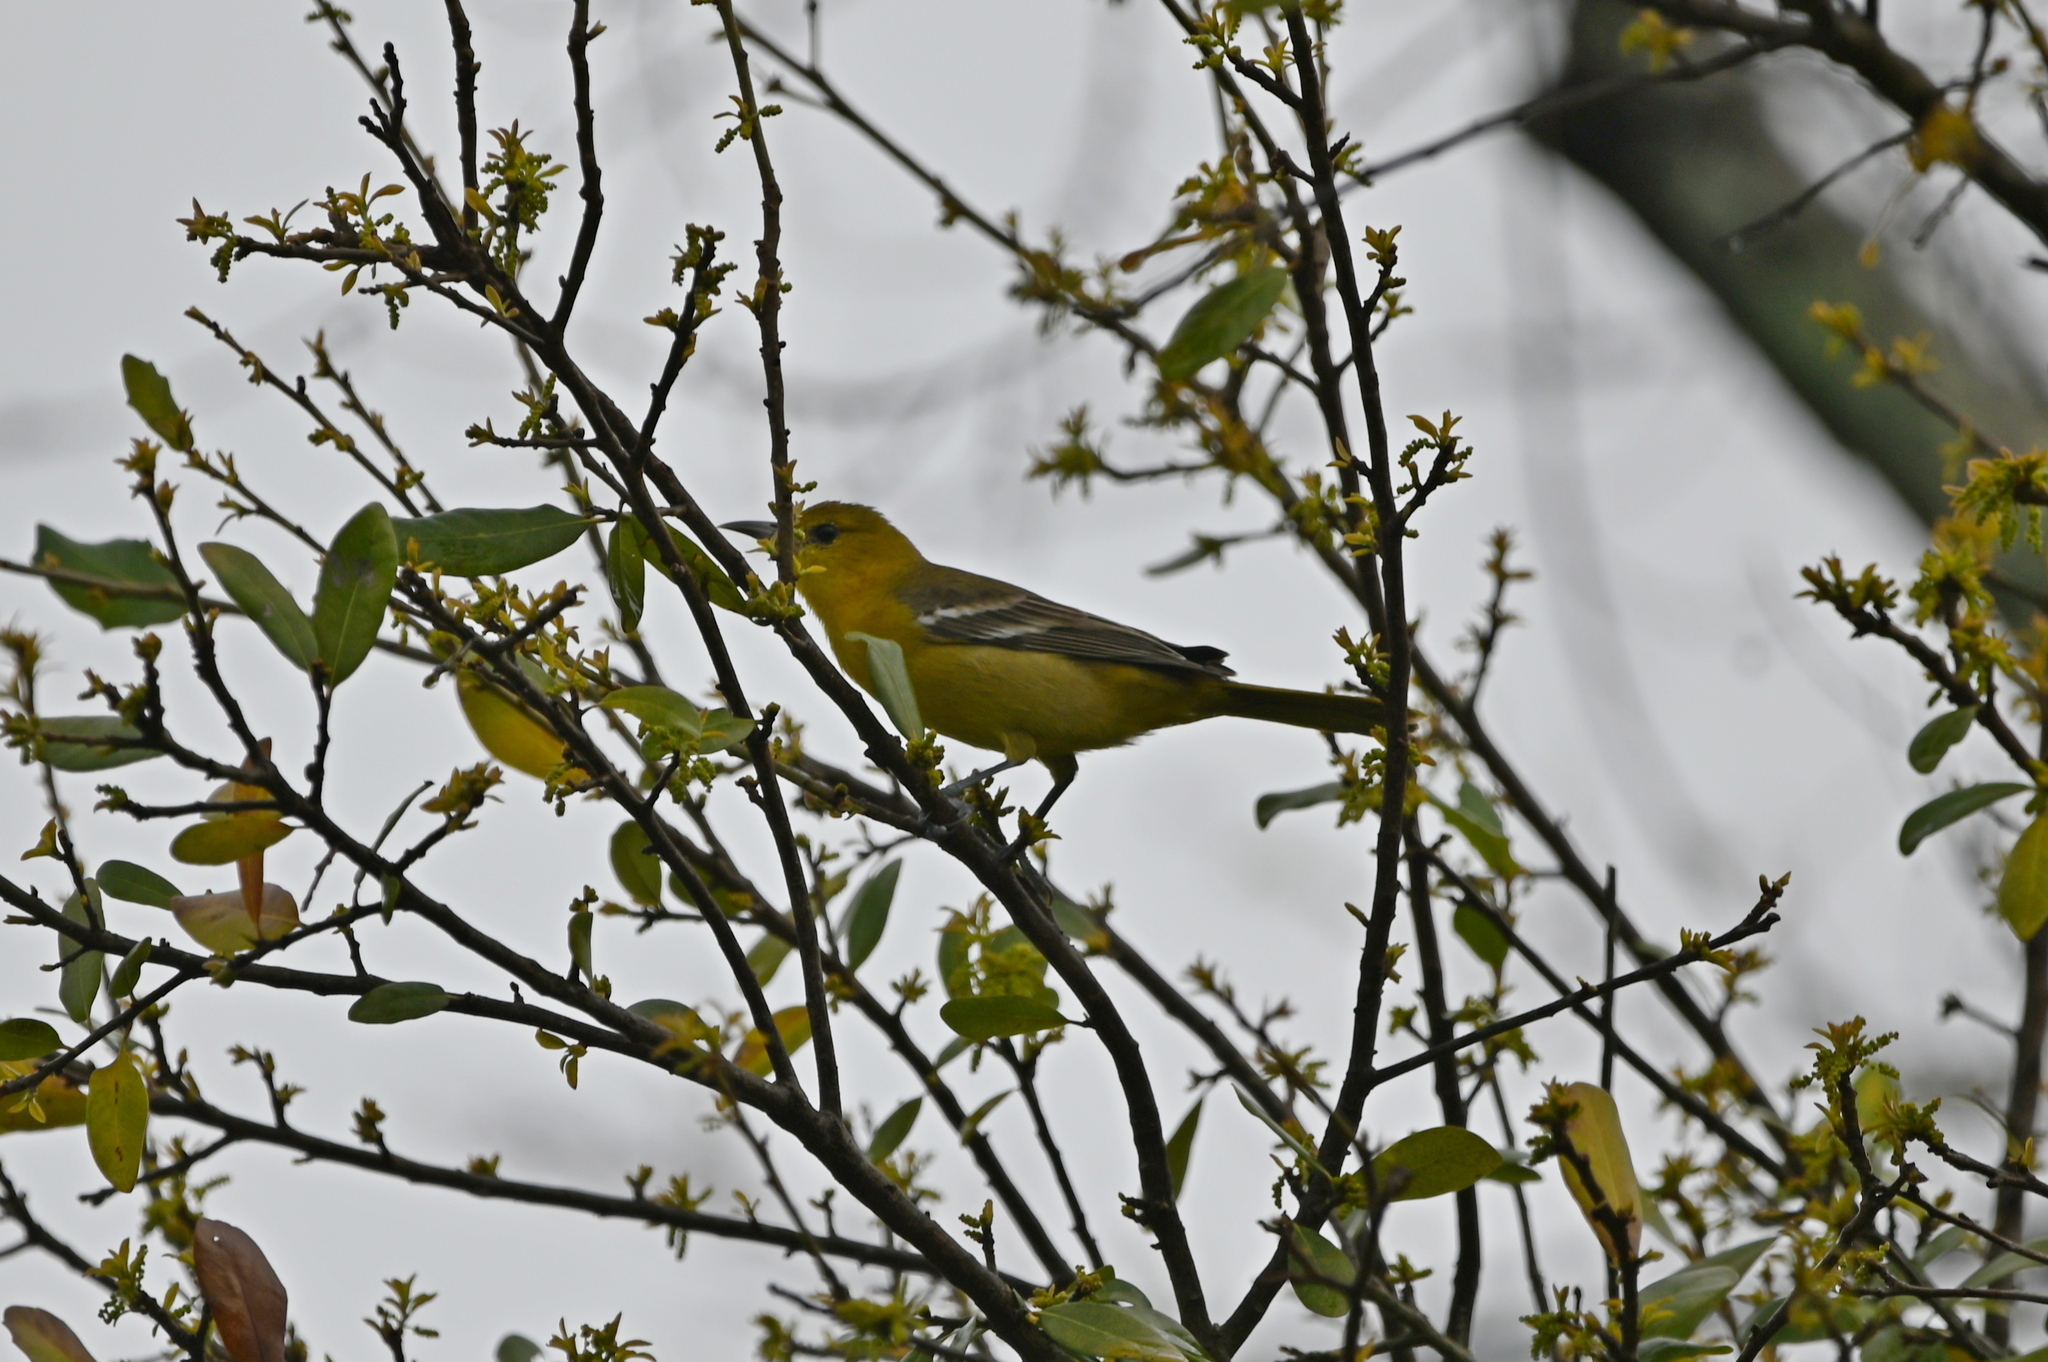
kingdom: Animalia
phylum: Chordata
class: Aves
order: Passeriformes
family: Icteridae
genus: Icterus
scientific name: Icterus cucullatus
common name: Hooded oriole
